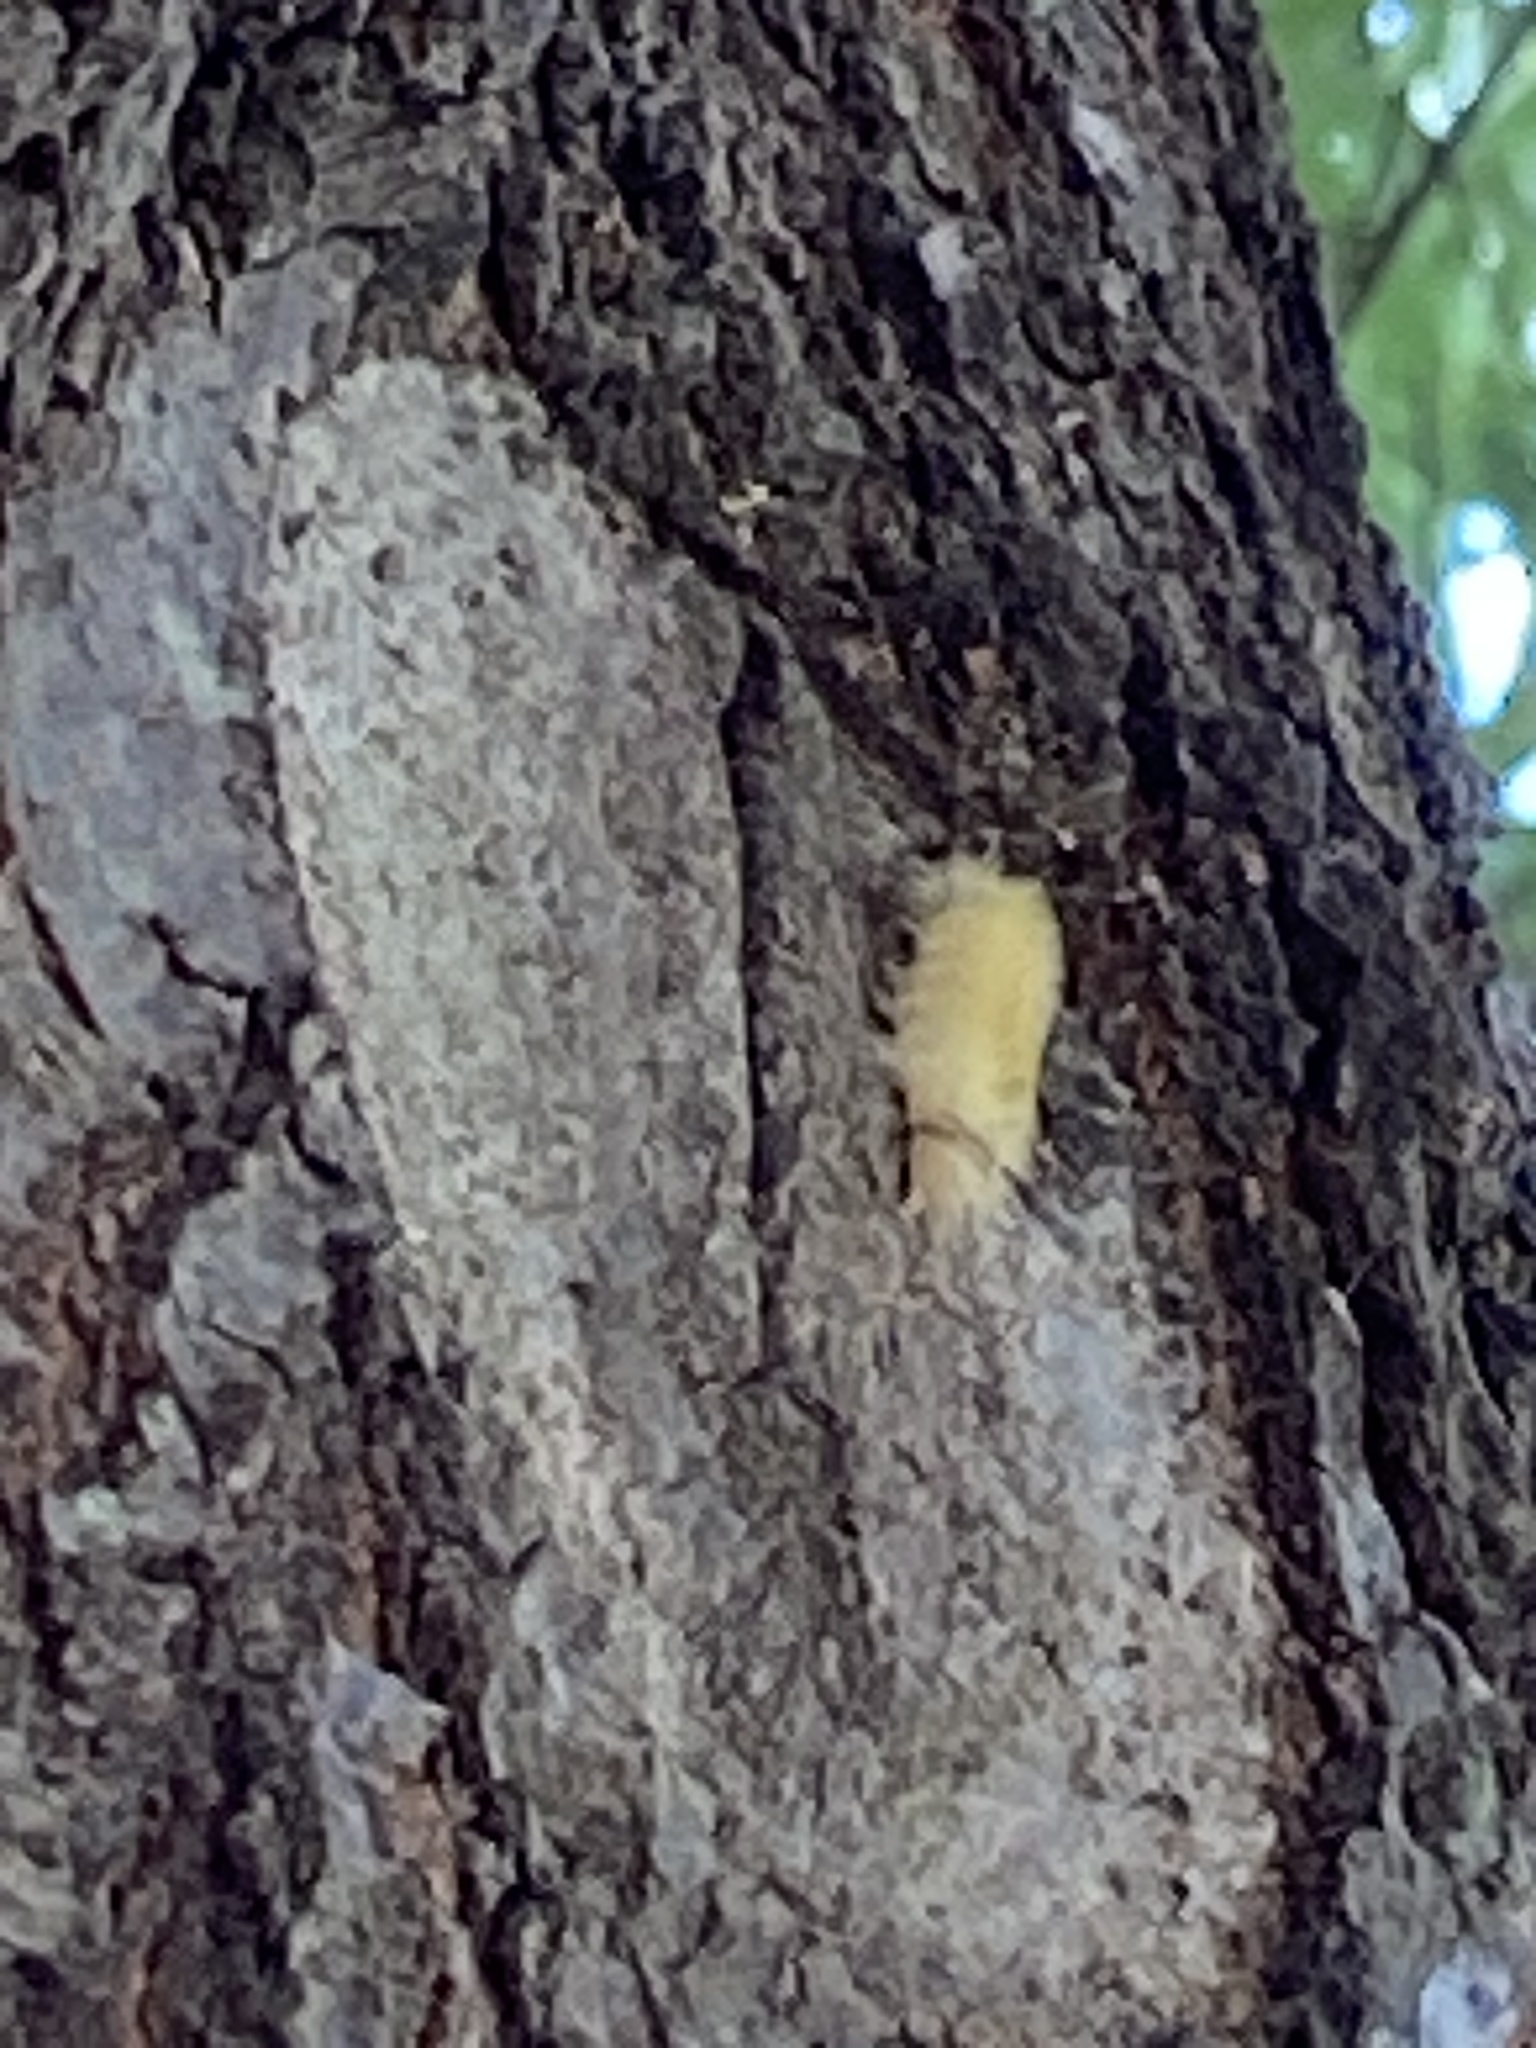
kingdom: Animalia
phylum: Arthropoda
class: Insecta
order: Lepidoptera
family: Erebidae
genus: Halysidota
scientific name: Halysidota tessellaris
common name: Banded tussock moth
